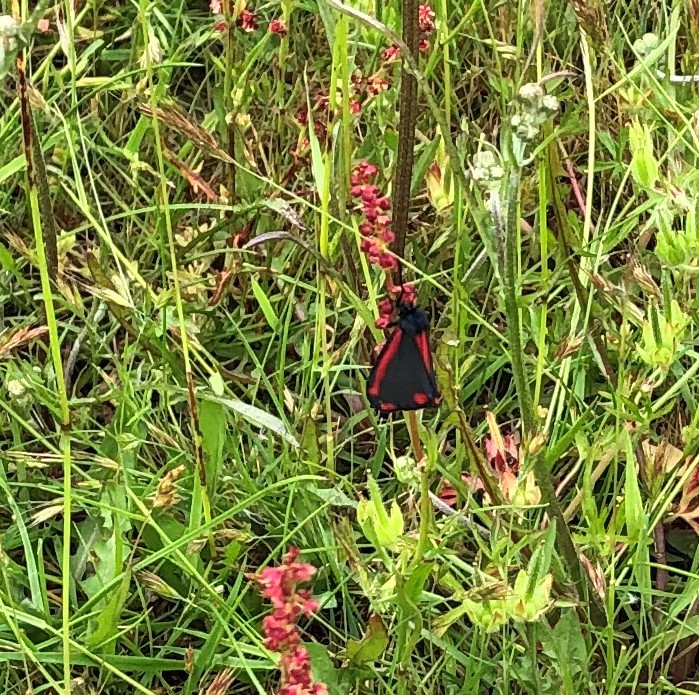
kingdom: Animalia
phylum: Arthropoda
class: Insecta
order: Lepidoptera
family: Erebidae
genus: Tyria
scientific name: Tyria jacobaeae
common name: Cinnabar
